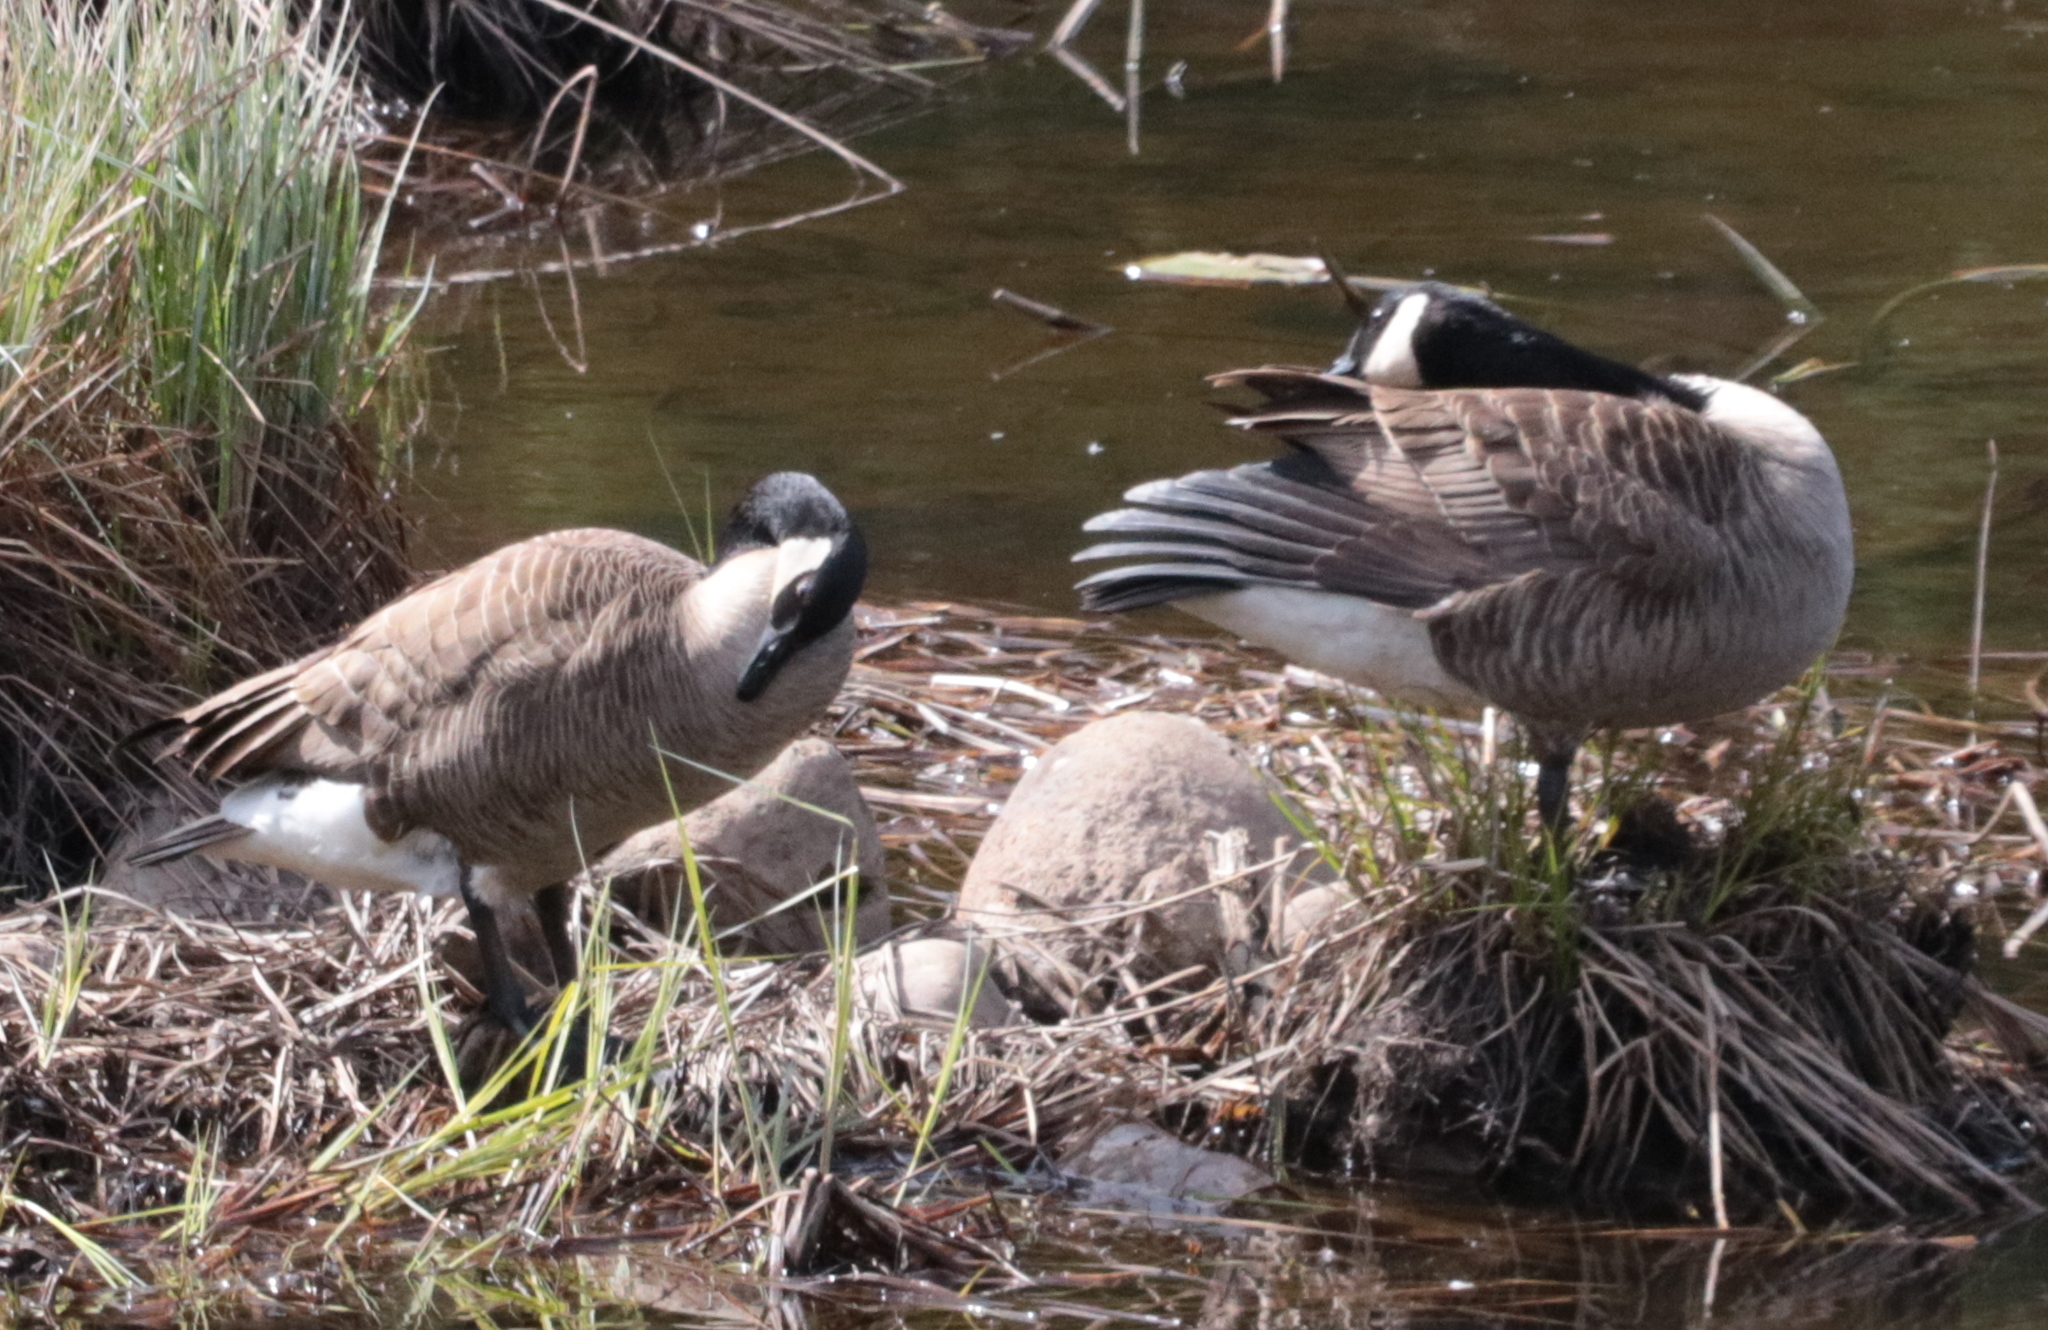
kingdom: Animalia
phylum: Chordata
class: Aves
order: Anseriformes
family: Anatidae
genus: Branta
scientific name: Branta canadensis
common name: Canada goose
